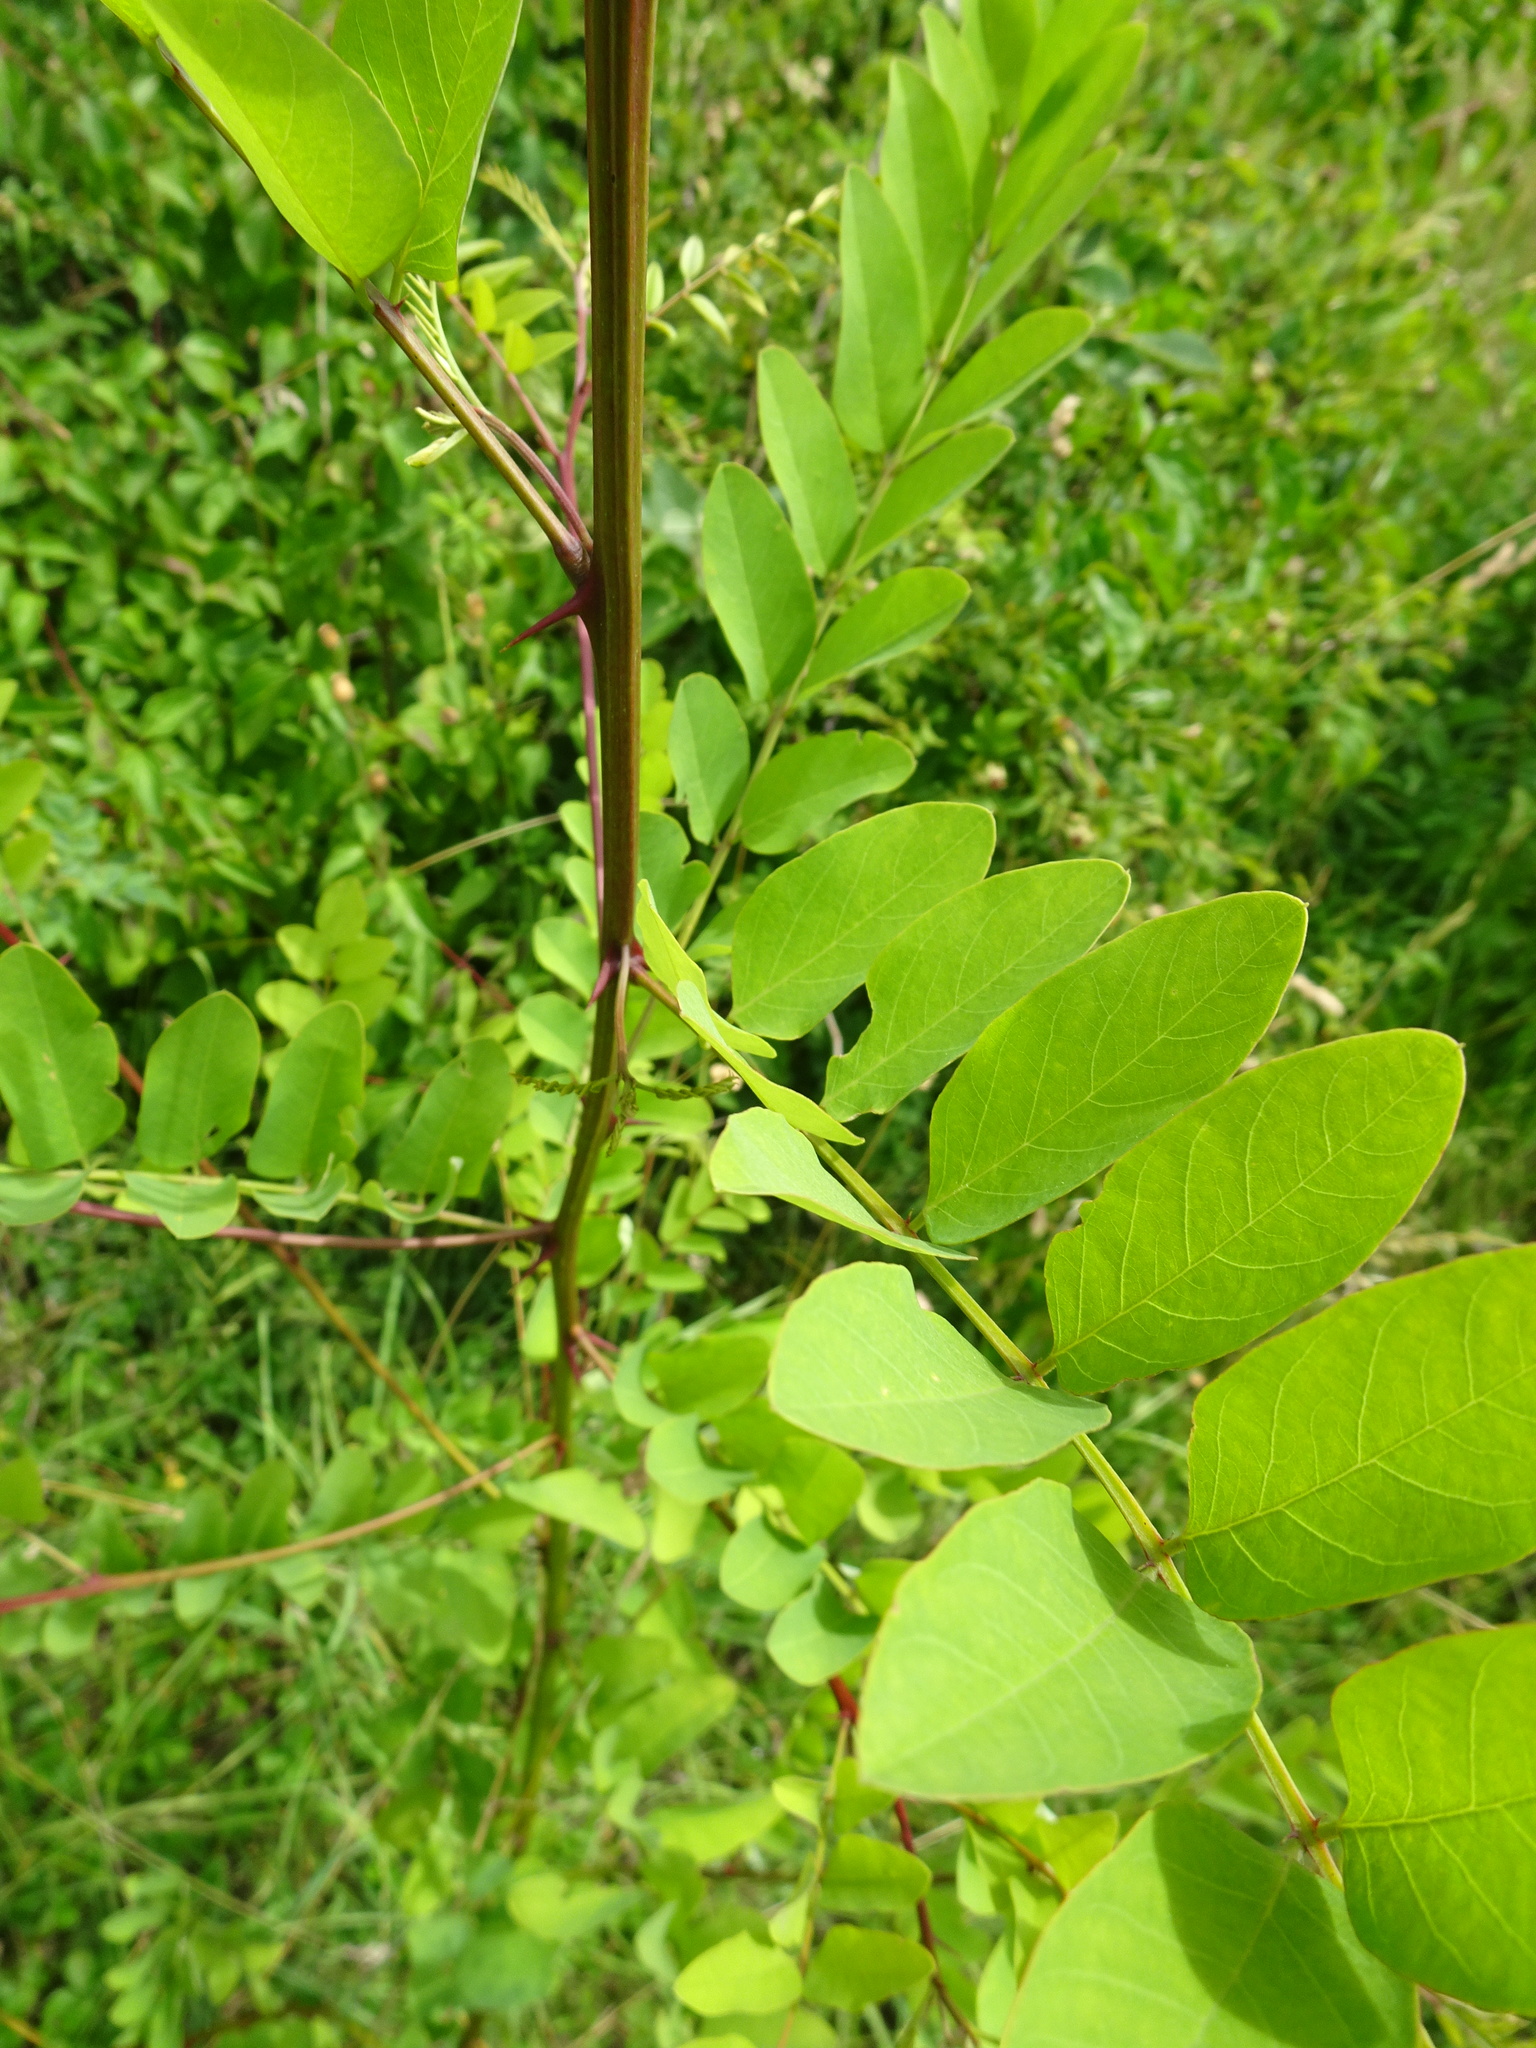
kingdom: Plantae
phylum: Tracheophyta
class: Magnoliopsida
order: Fabales
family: Fabaceae
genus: Robinia
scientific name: Robinia pseudoacacia
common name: Black locust
